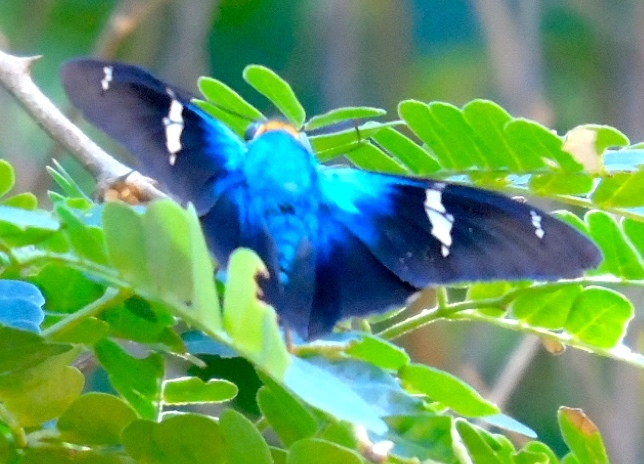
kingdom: Animalia
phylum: Arthropoda
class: Insecta
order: Lepidoptera
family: Hesperiidae
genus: Astraptes
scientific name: Astraptes fulgerator
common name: Two-barred flasher
